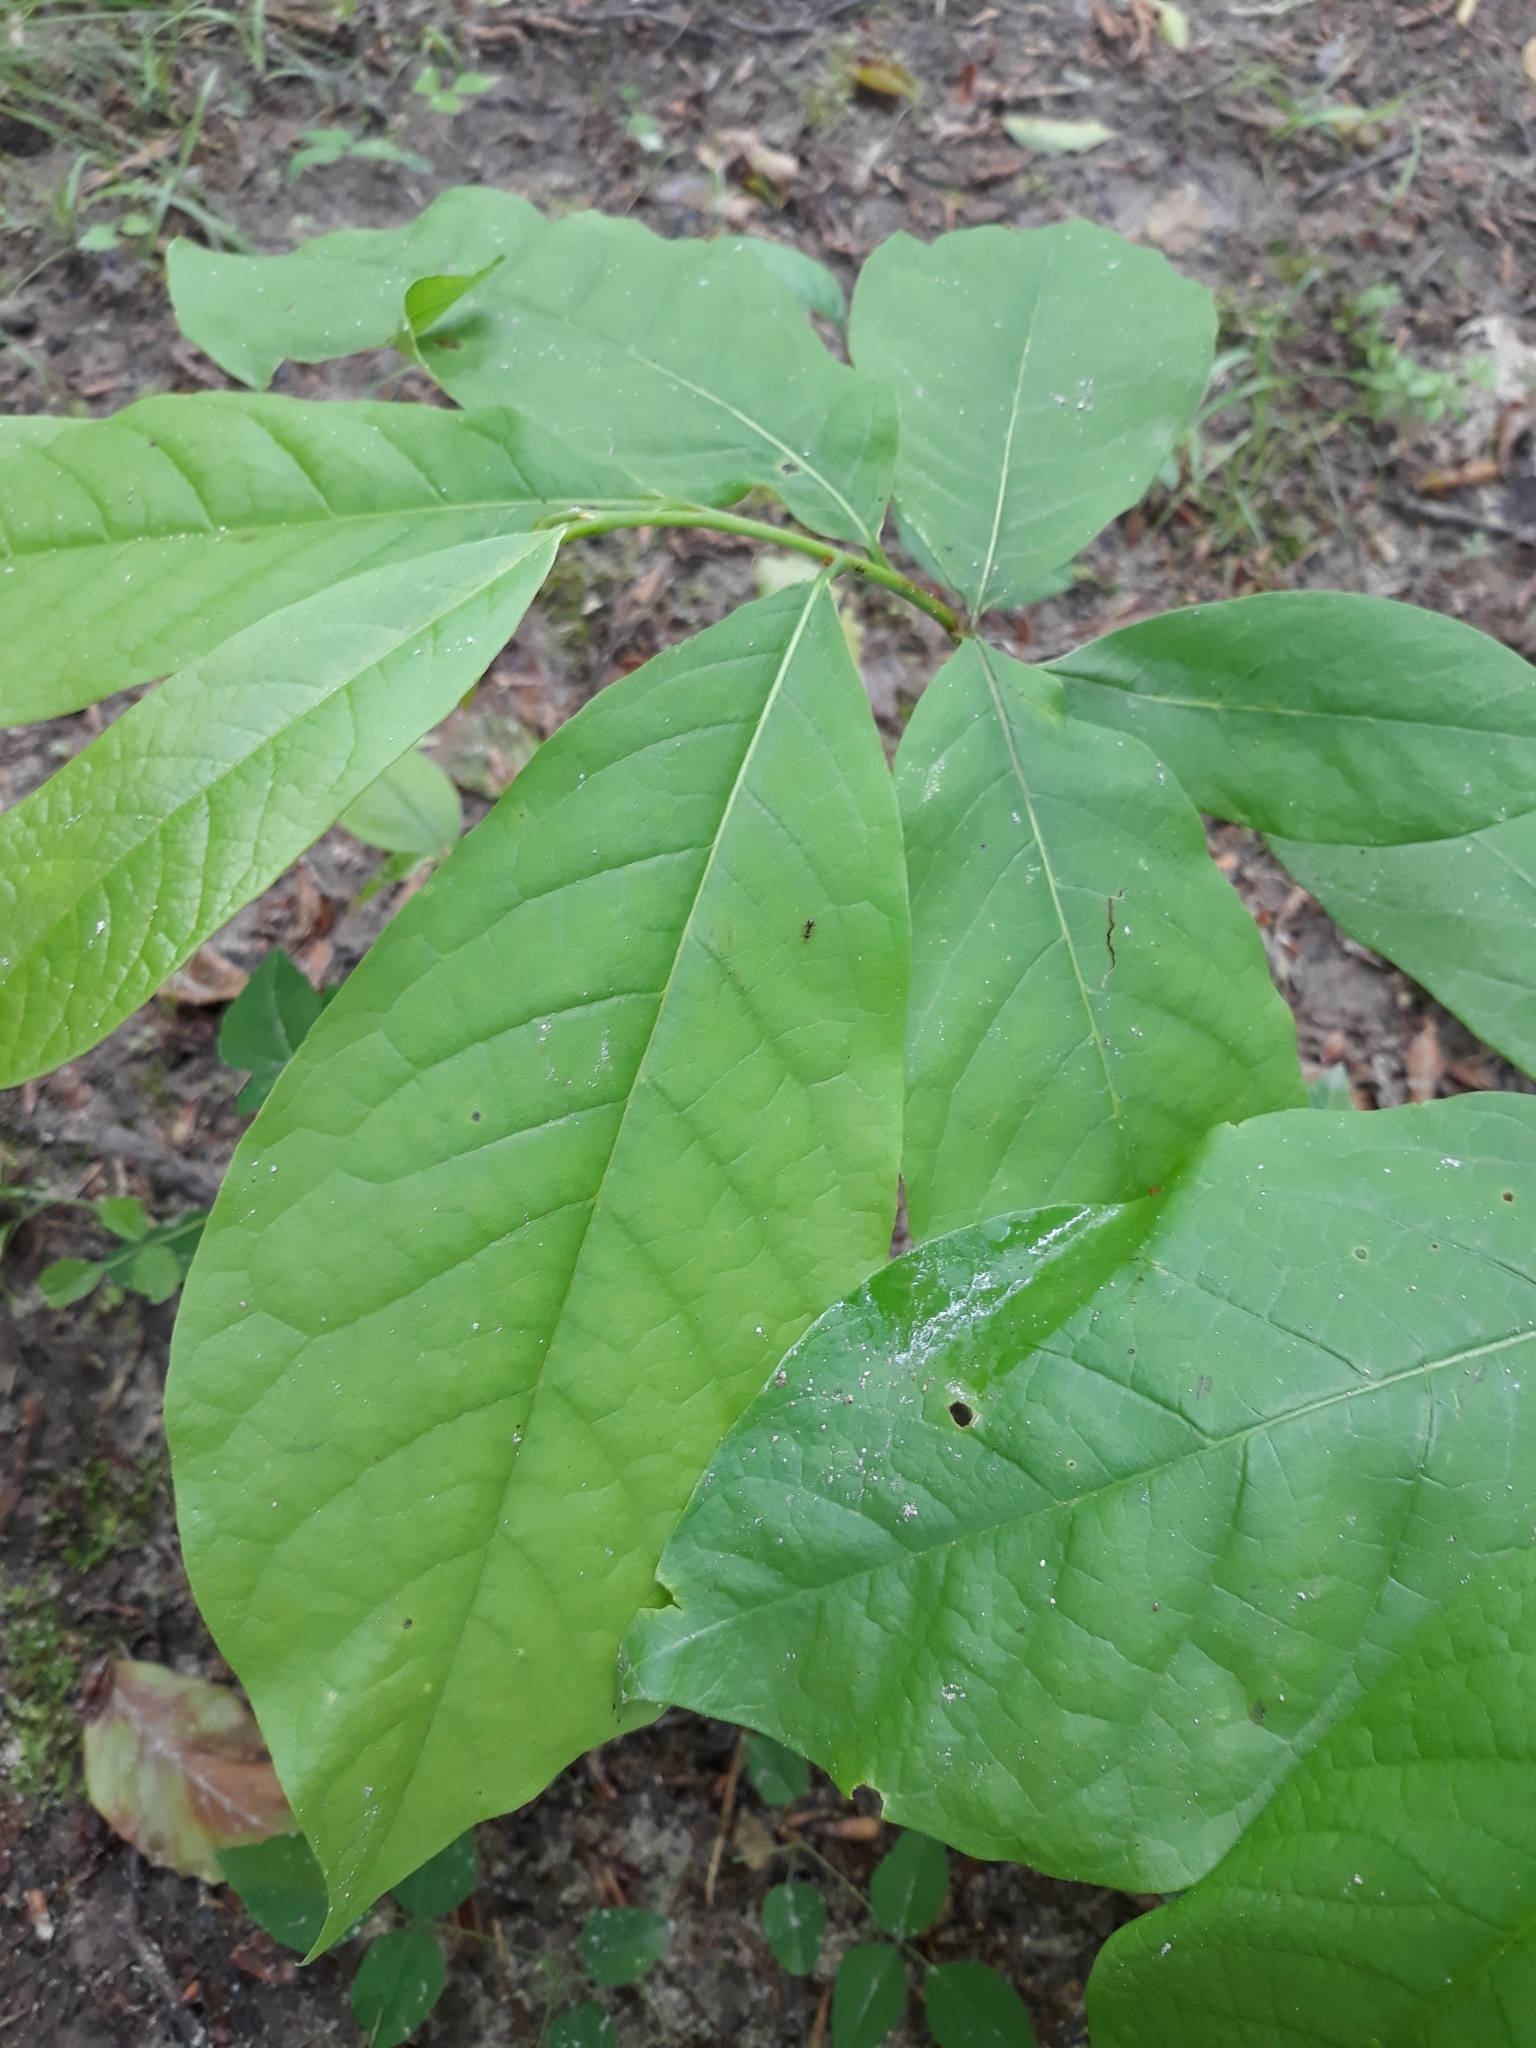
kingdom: Plantae
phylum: Tracheophyta
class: Magnoliopsida
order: Magnoliales
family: Annonaceae
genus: Asimina
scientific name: Asimina triloba
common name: Dog-banana
